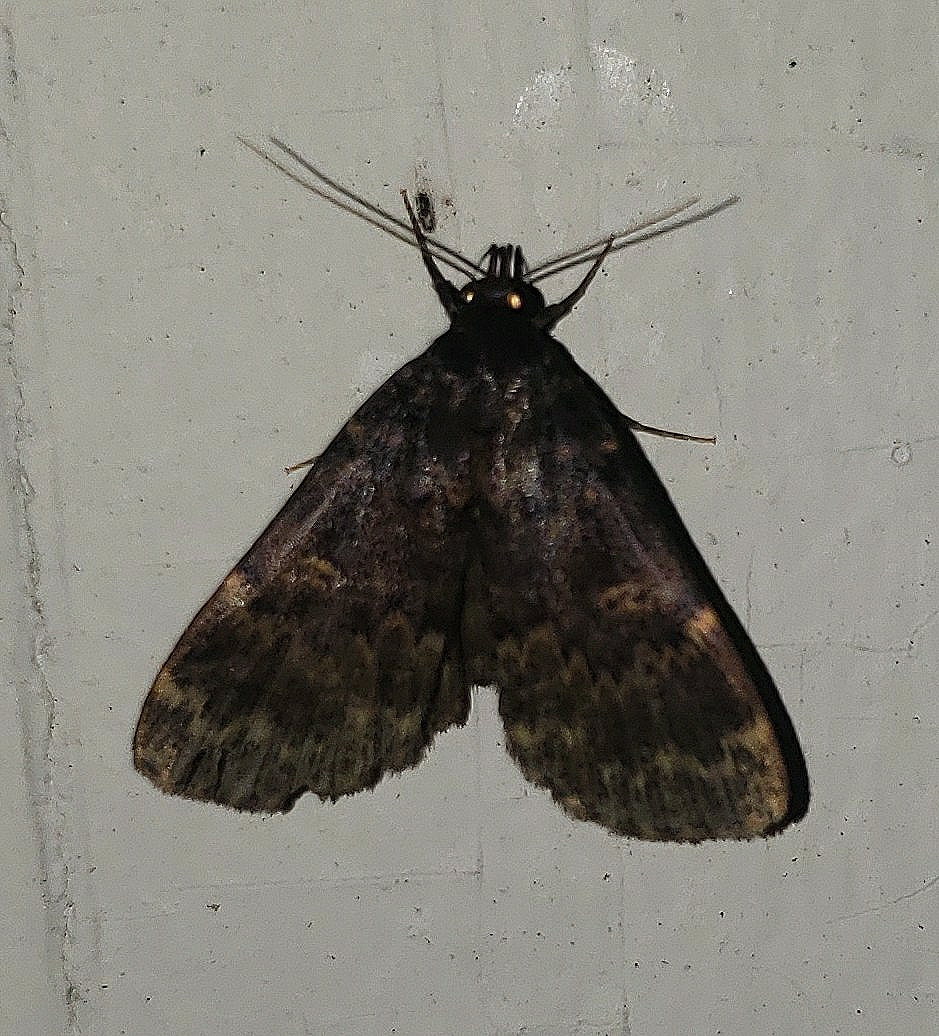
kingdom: Animalia
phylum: Arthropoda
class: Insecta
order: Lepidoptera
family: Erebidae
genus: Idia
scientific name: Idia lubricalis
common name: Twin-striped tabby
